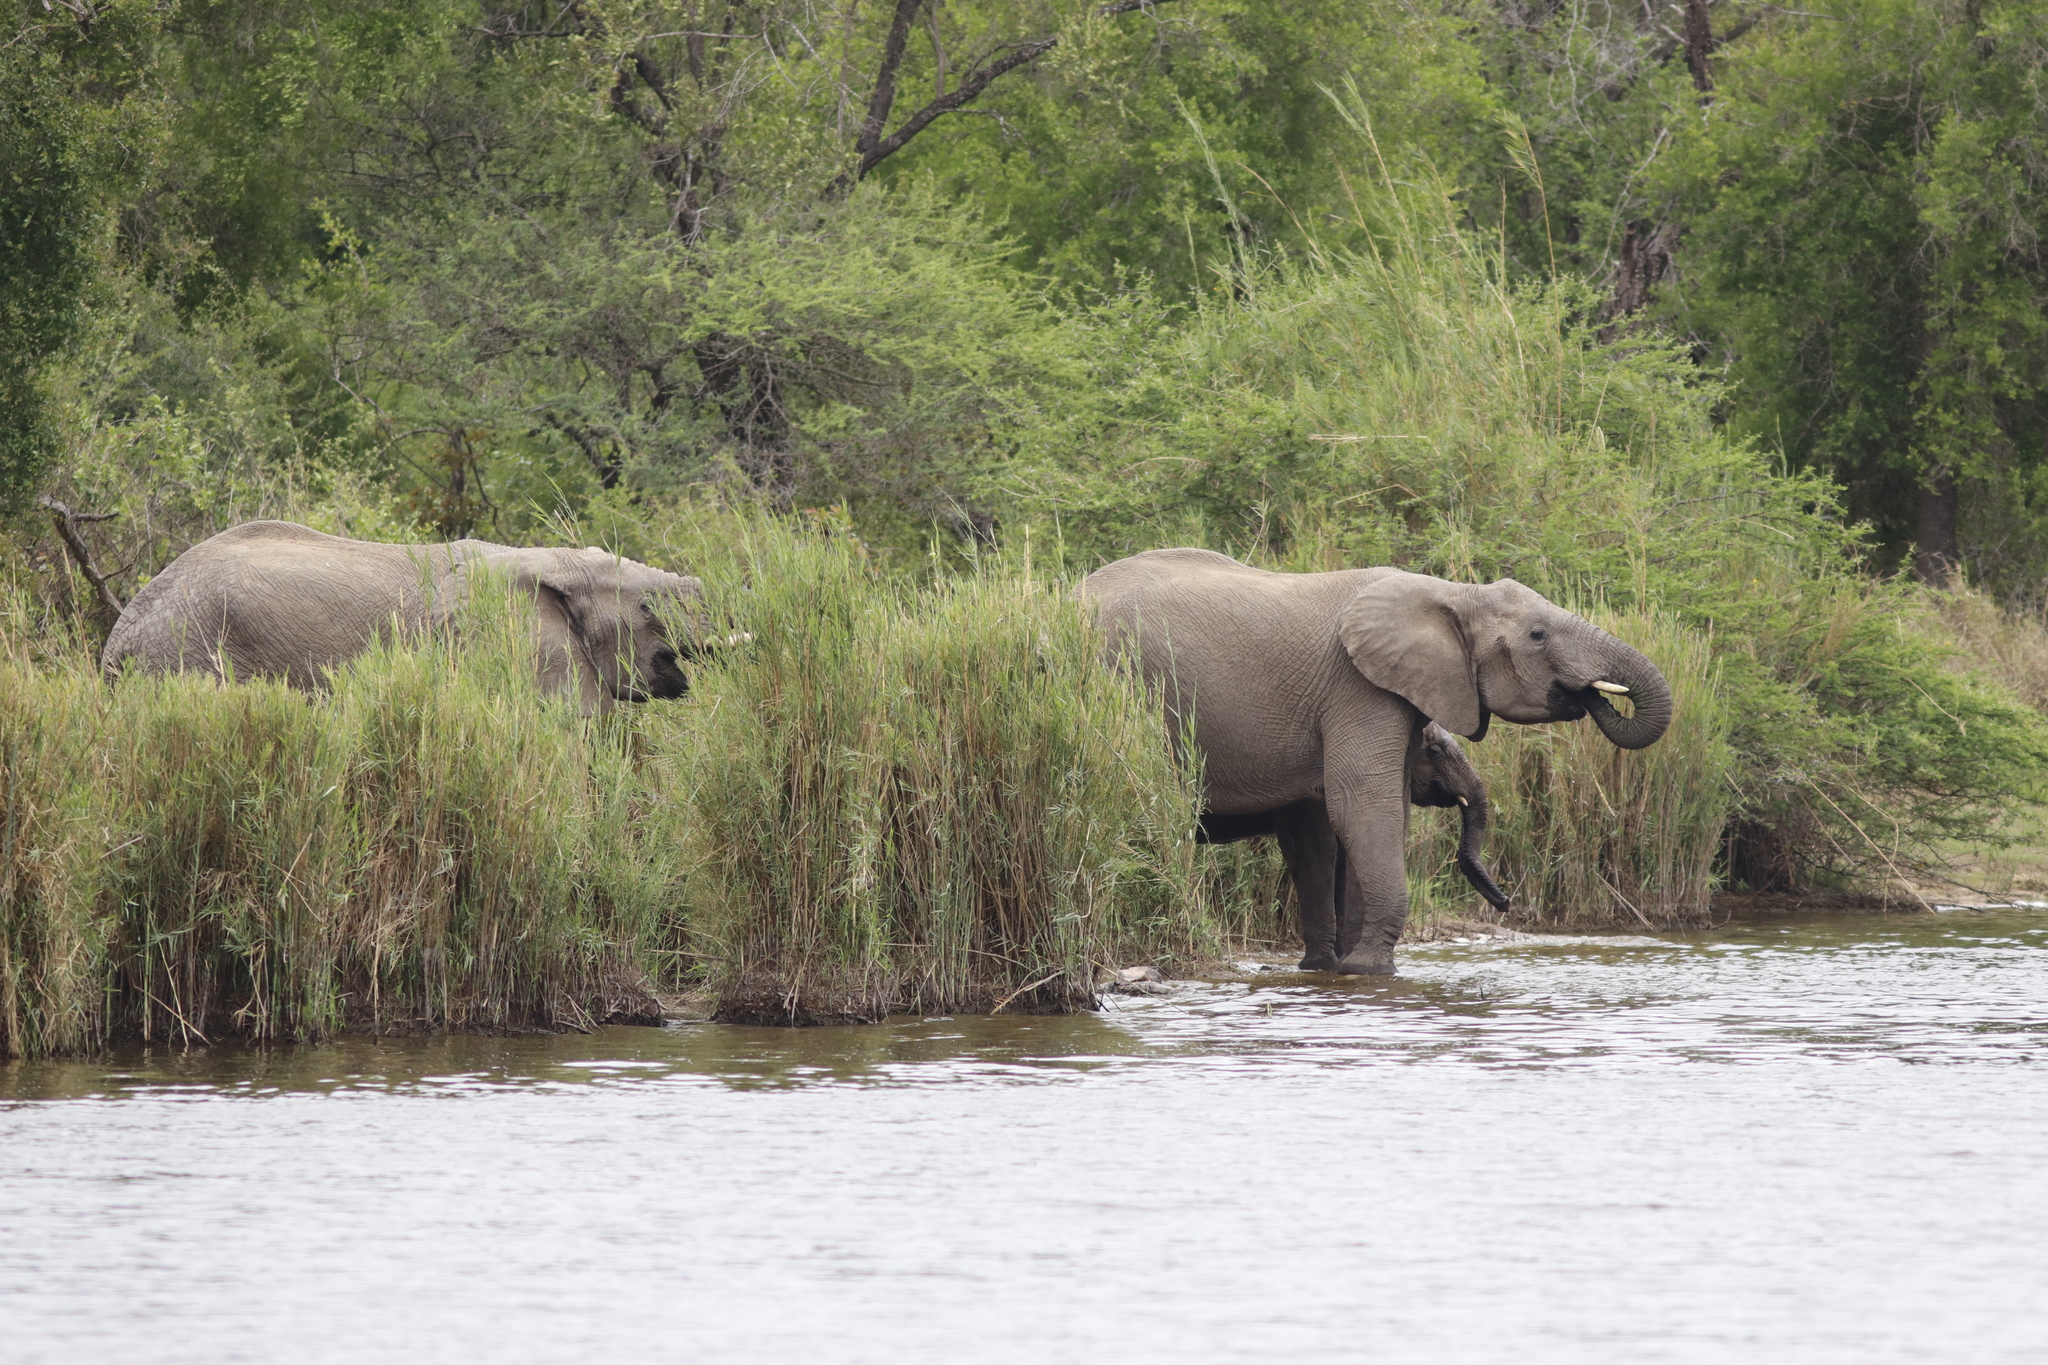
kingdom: Animalia
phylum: Chordata
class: Mammalia
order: Proboscidea
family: Elephantidae
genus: Loxodonta
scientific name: Loxodonta africana
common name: African elephant
